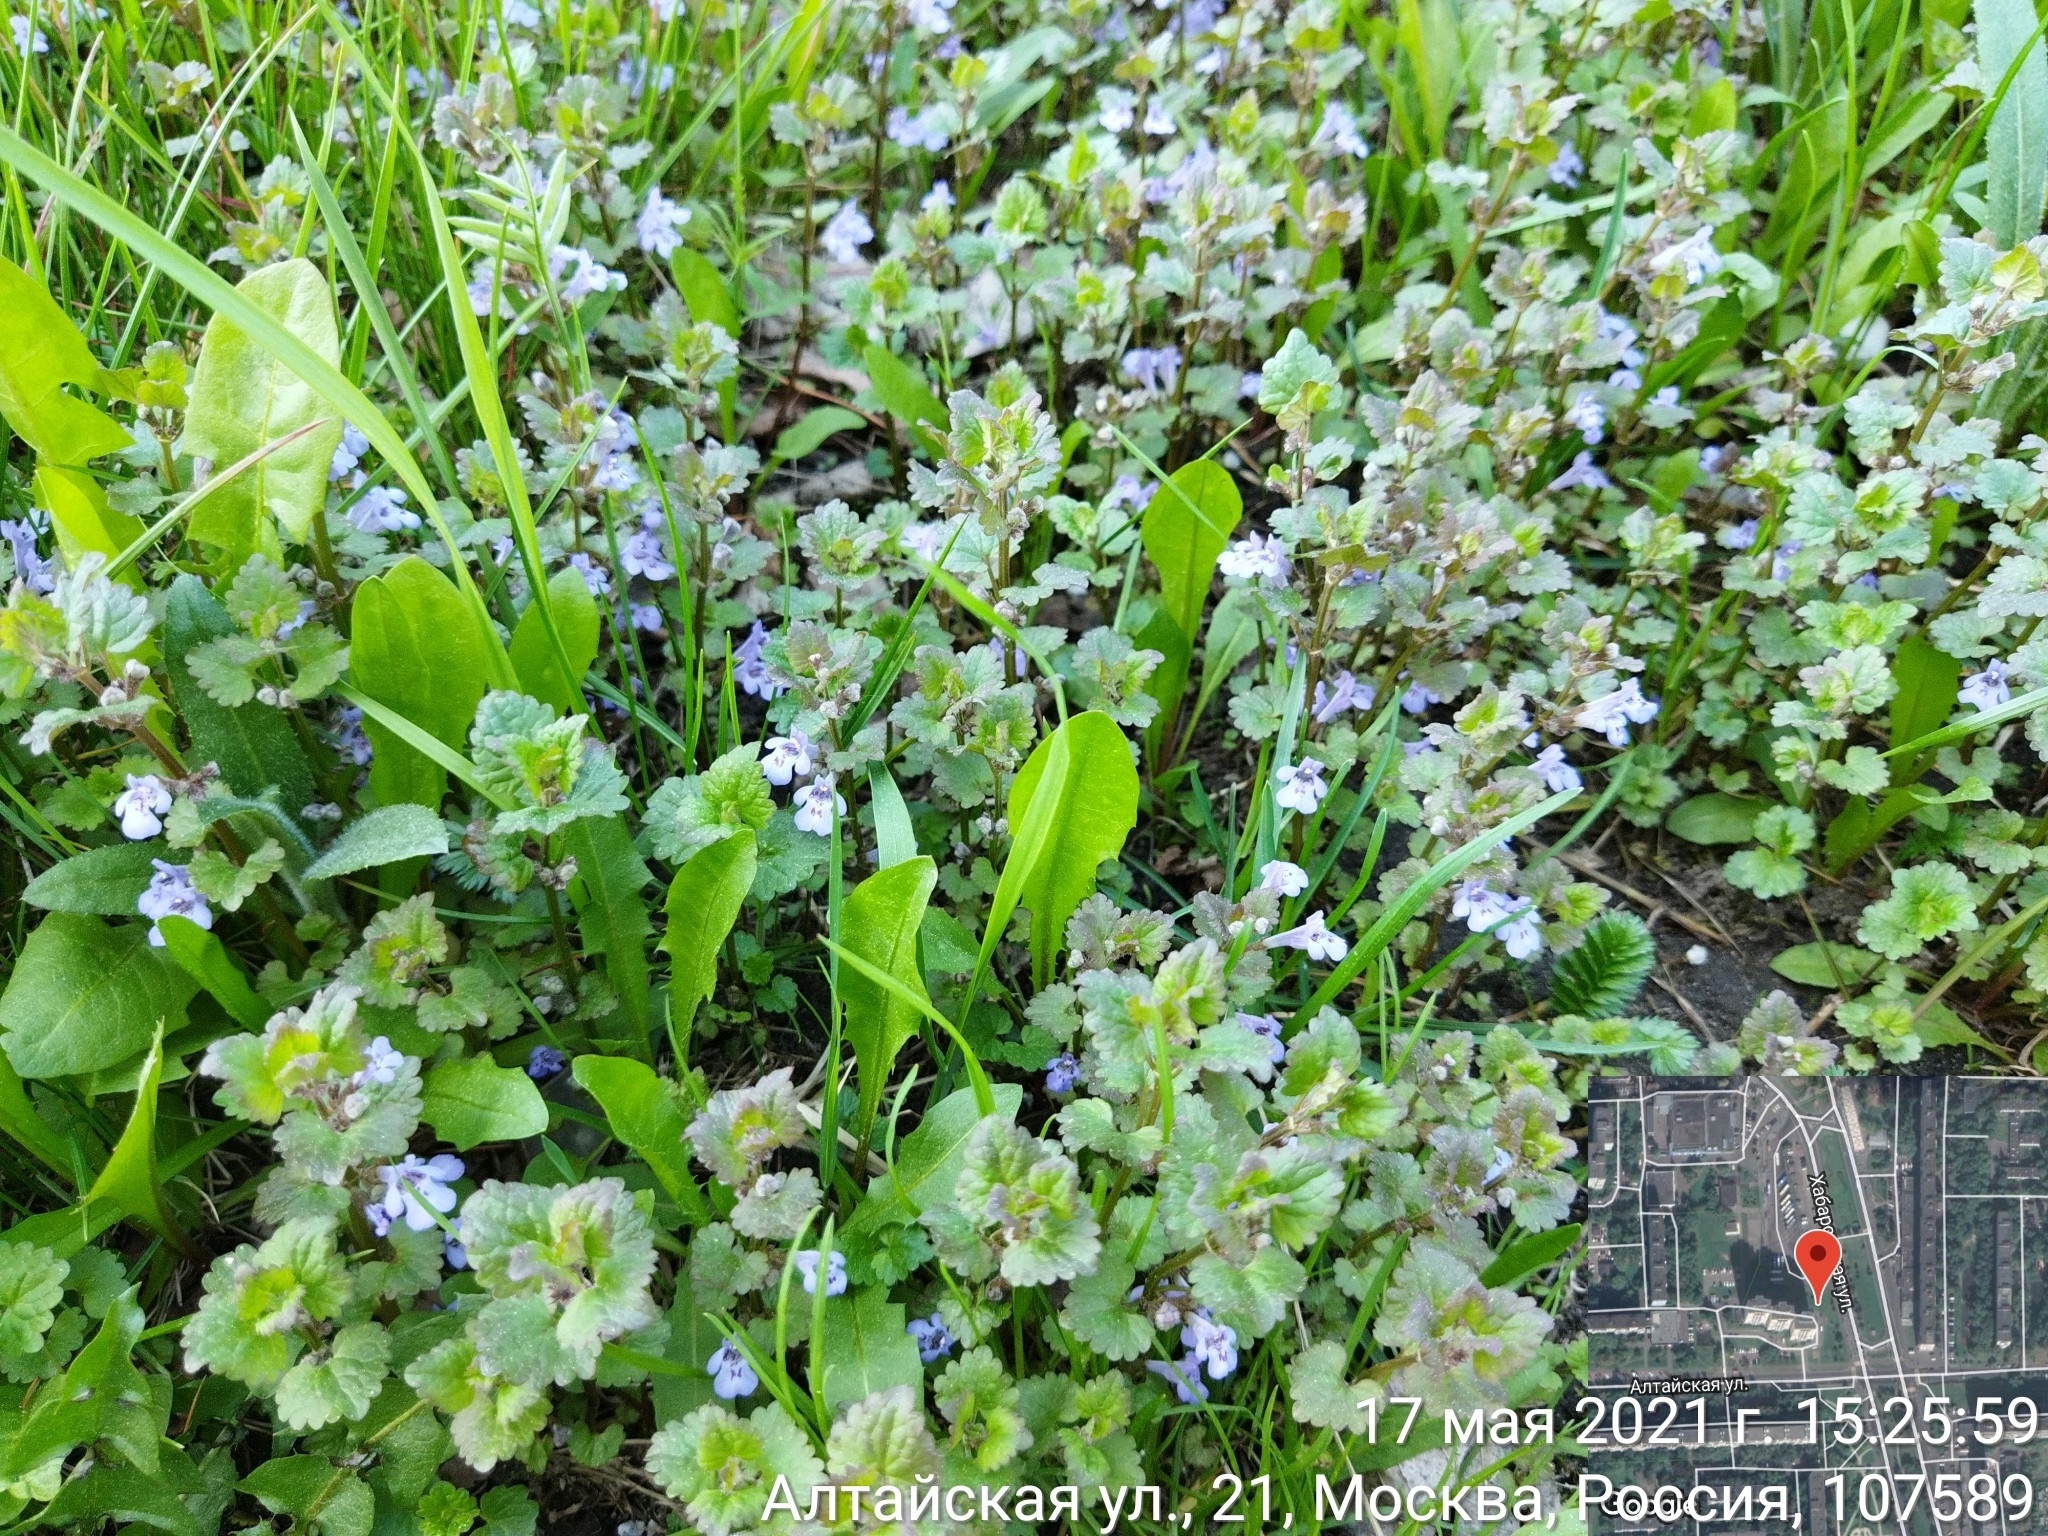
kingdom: Plantae
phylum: Tracheophyta
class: Magnoliopsida
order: Lamiales
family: Lamiaceae
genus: Glechoma
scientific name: Glechoma hederacea
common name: Ground ivy
